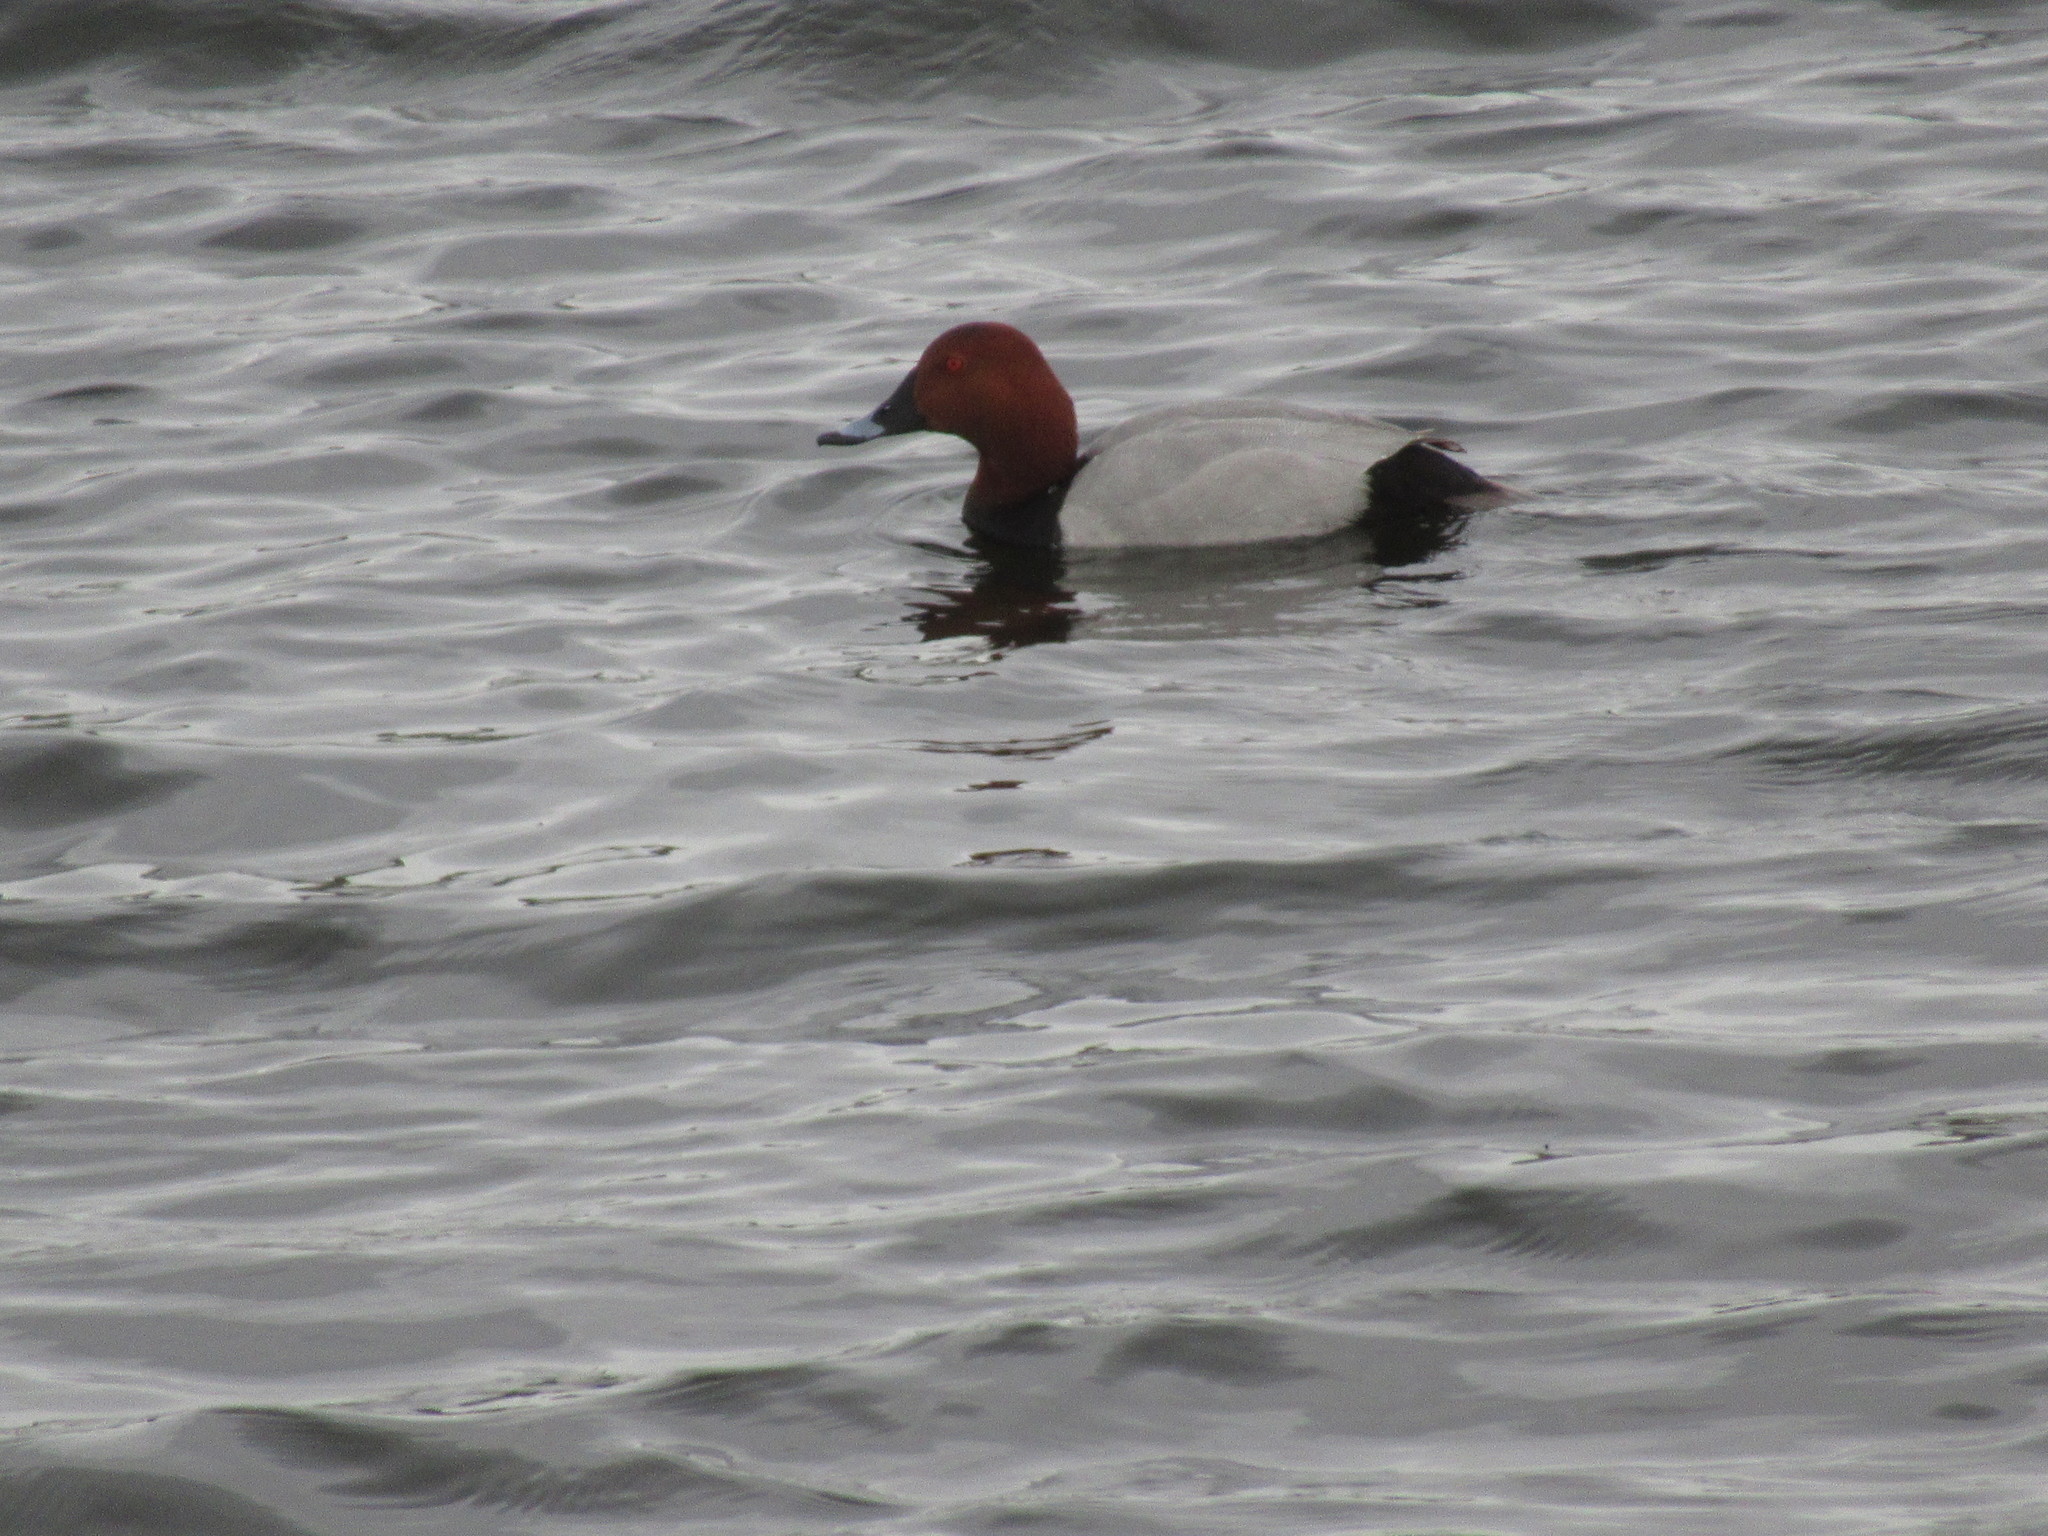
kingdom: Animalia
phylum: Chordata
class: Aves
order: Anseriformes
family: Anatidae
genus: Aythya
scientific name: Aythya ferina
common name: Common pochard
